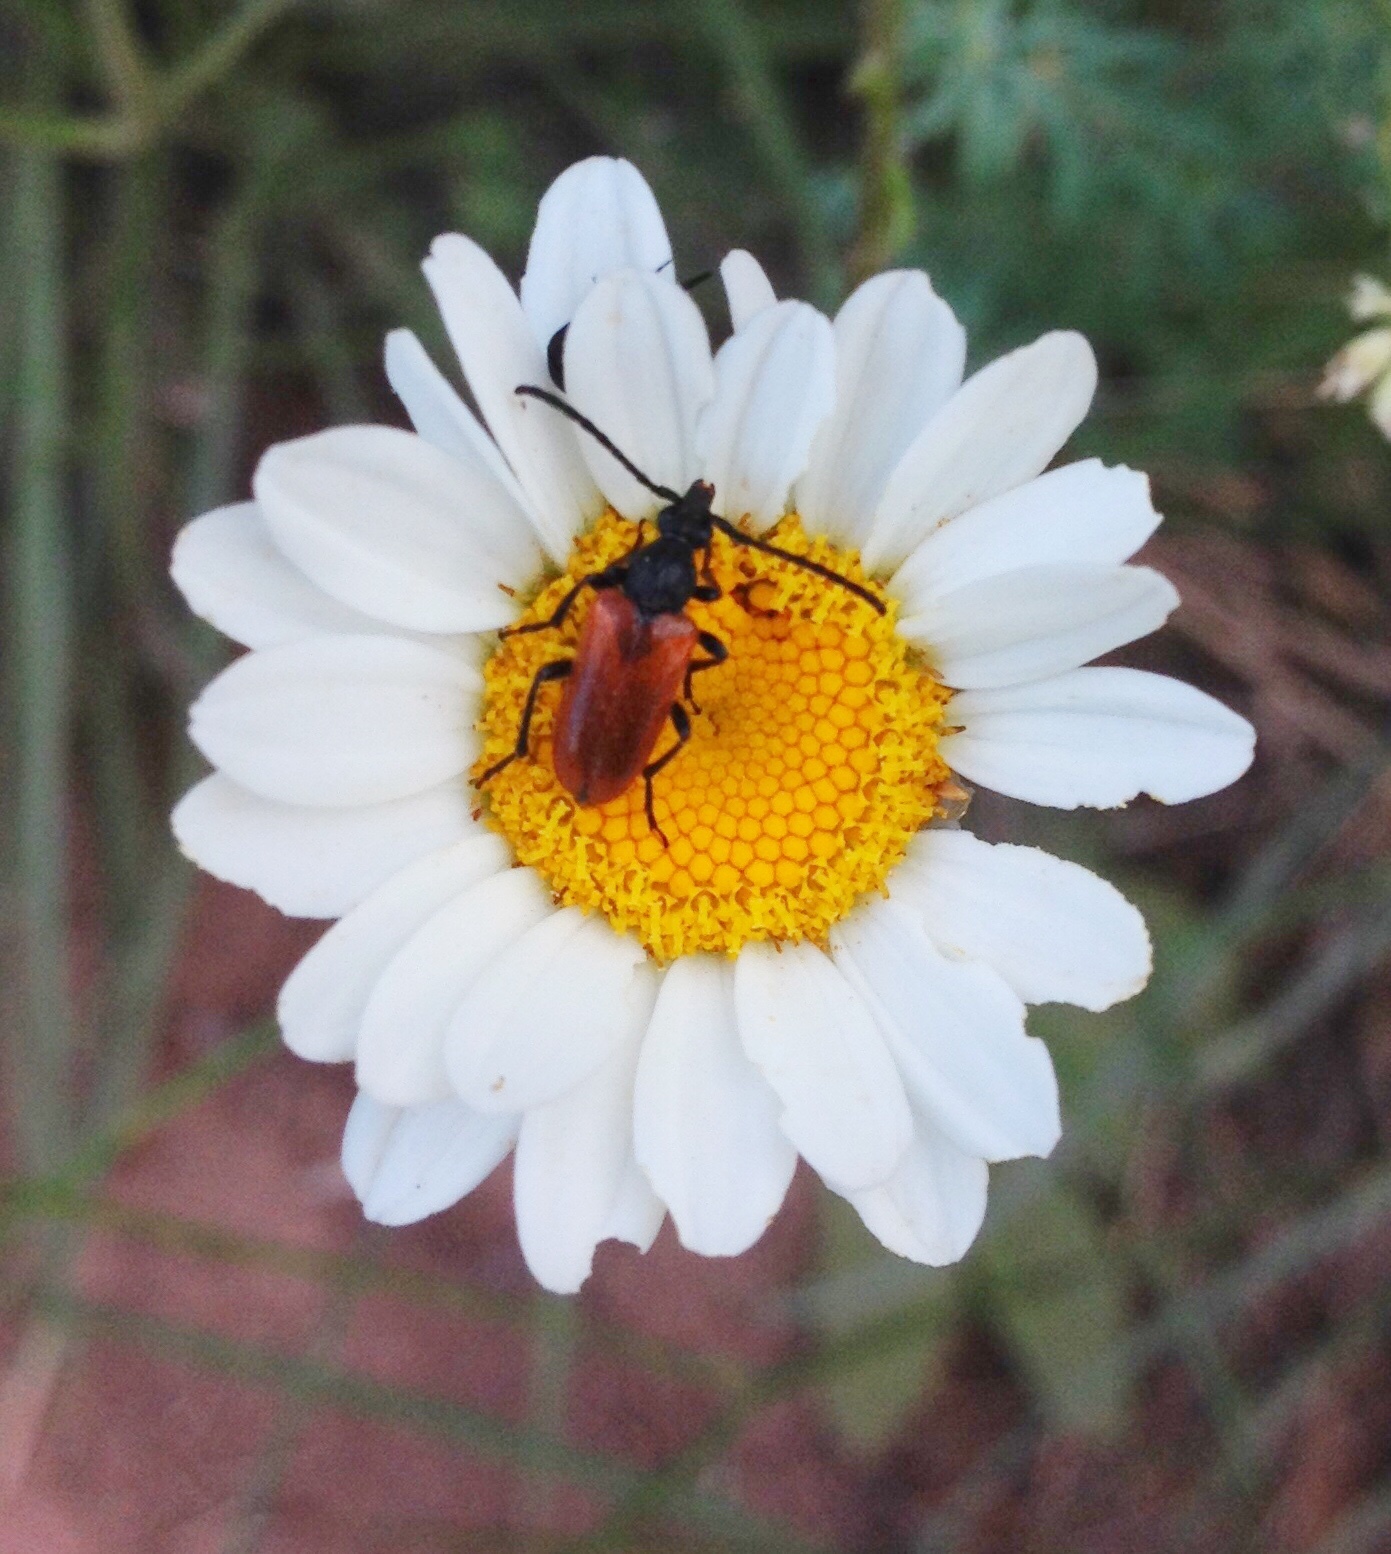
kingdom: Animalia
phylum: Arthropoda
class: Insecta
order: Coleoptera
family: Cerambycidae
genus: Pseudovadonia
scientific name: Pseudovadonia livida
